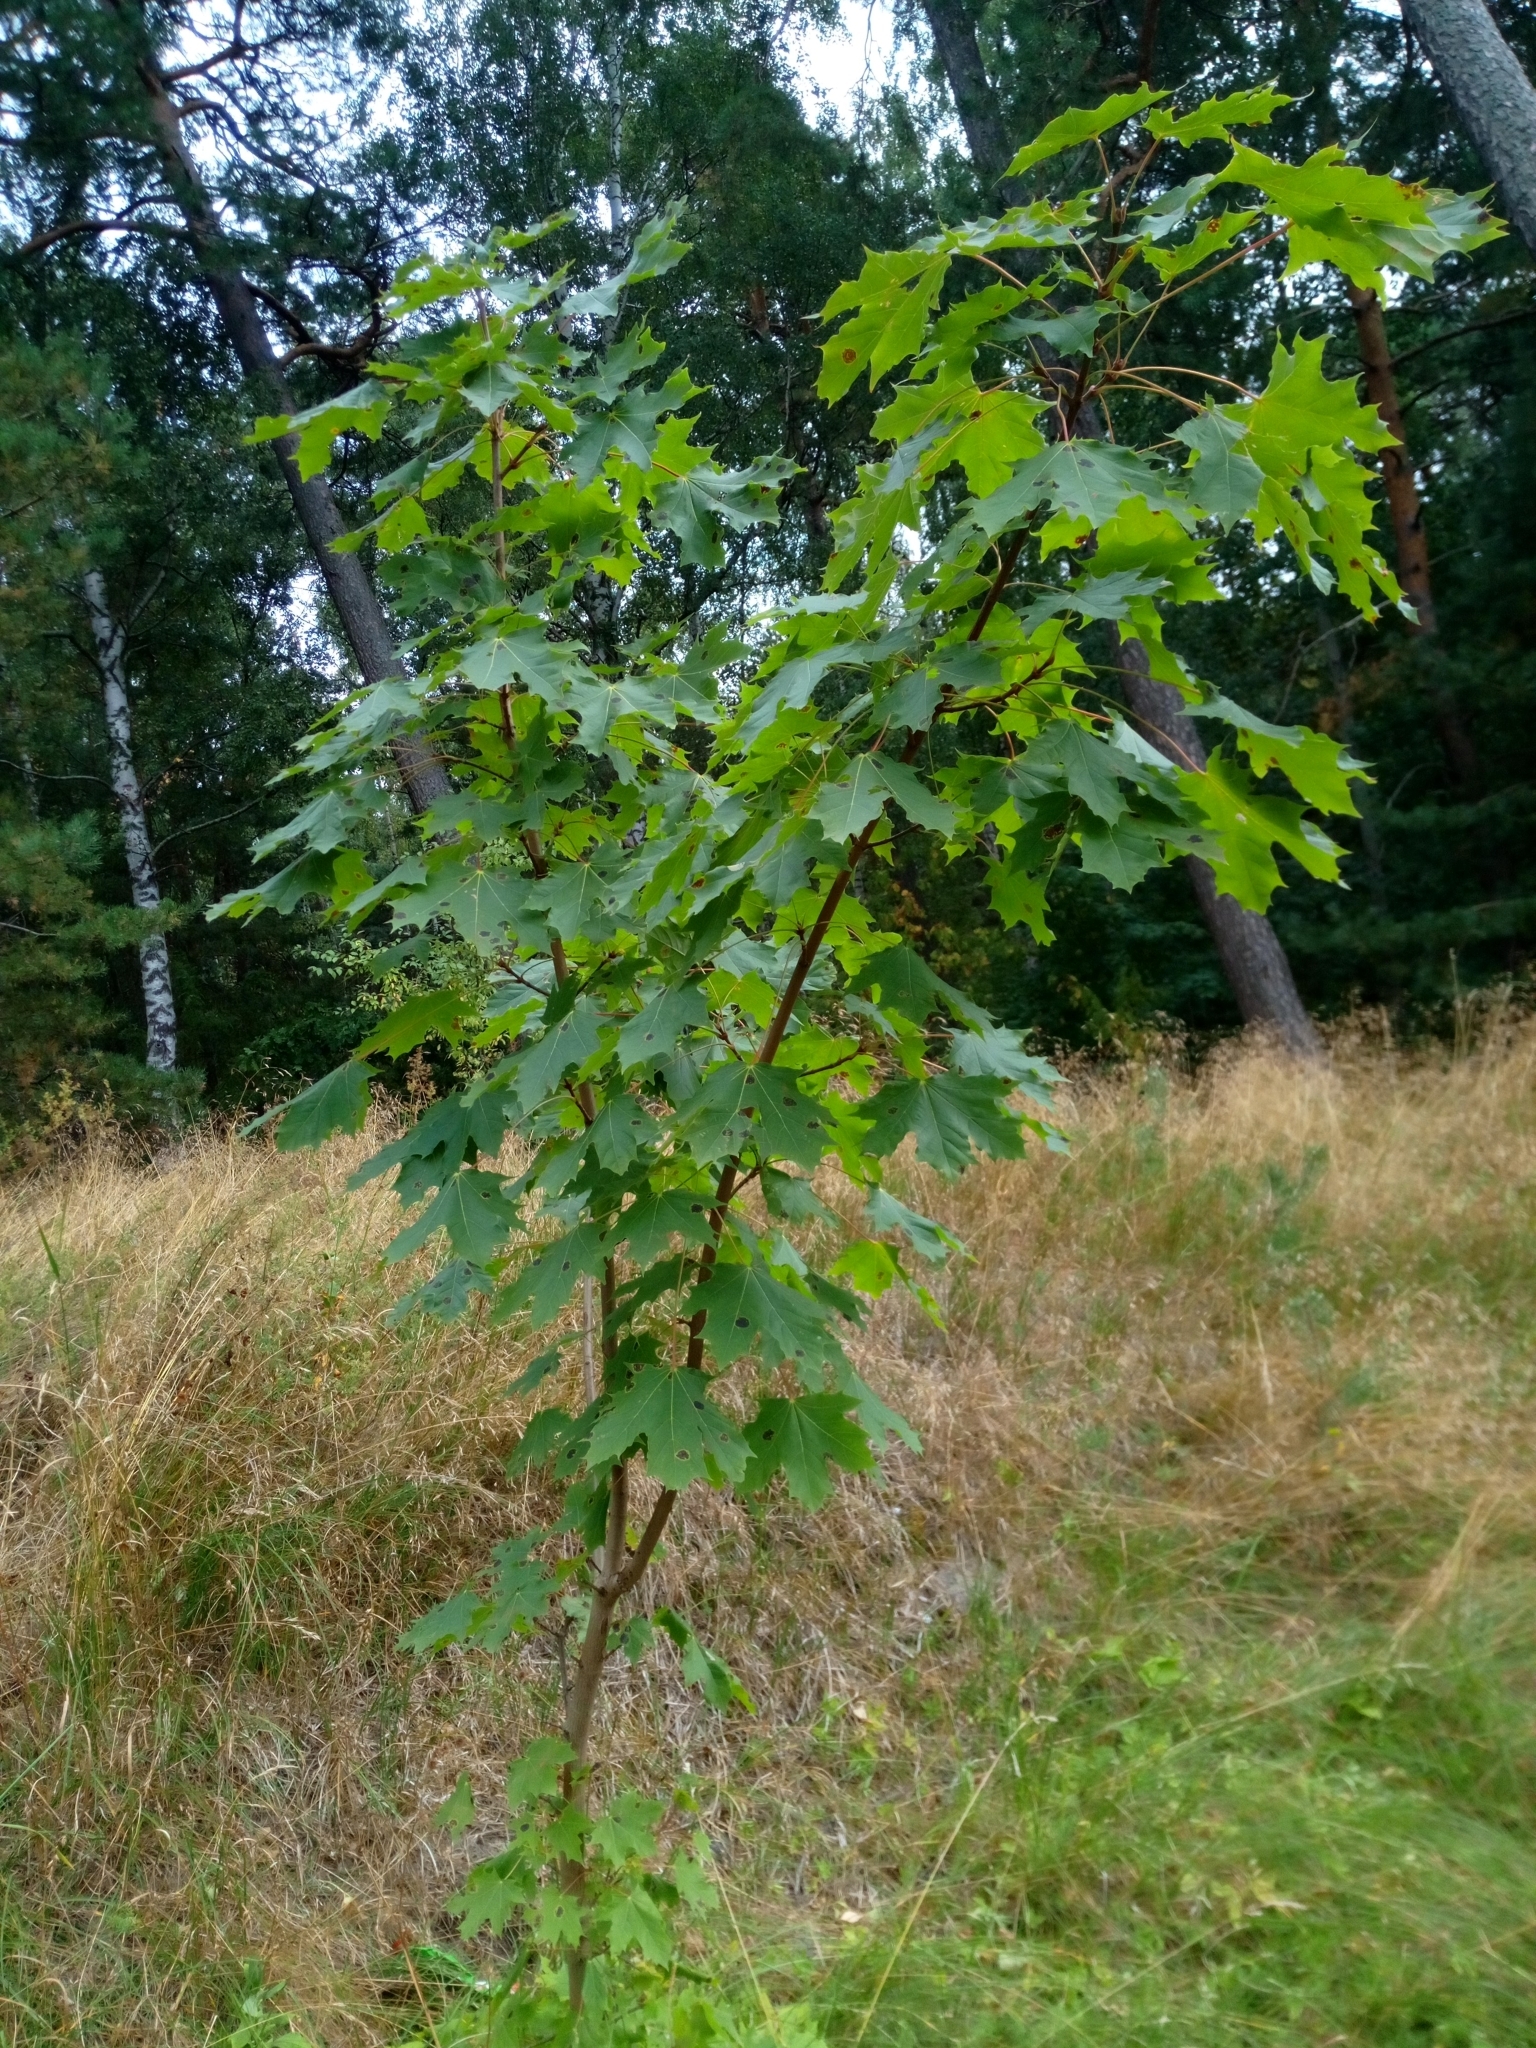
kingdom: Plantae
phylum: Tracheophyta
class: Magnoliopsida
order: Sapindales
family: Sapindaceae
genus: Acer
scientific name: Acer platanoides
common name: Norway maple
